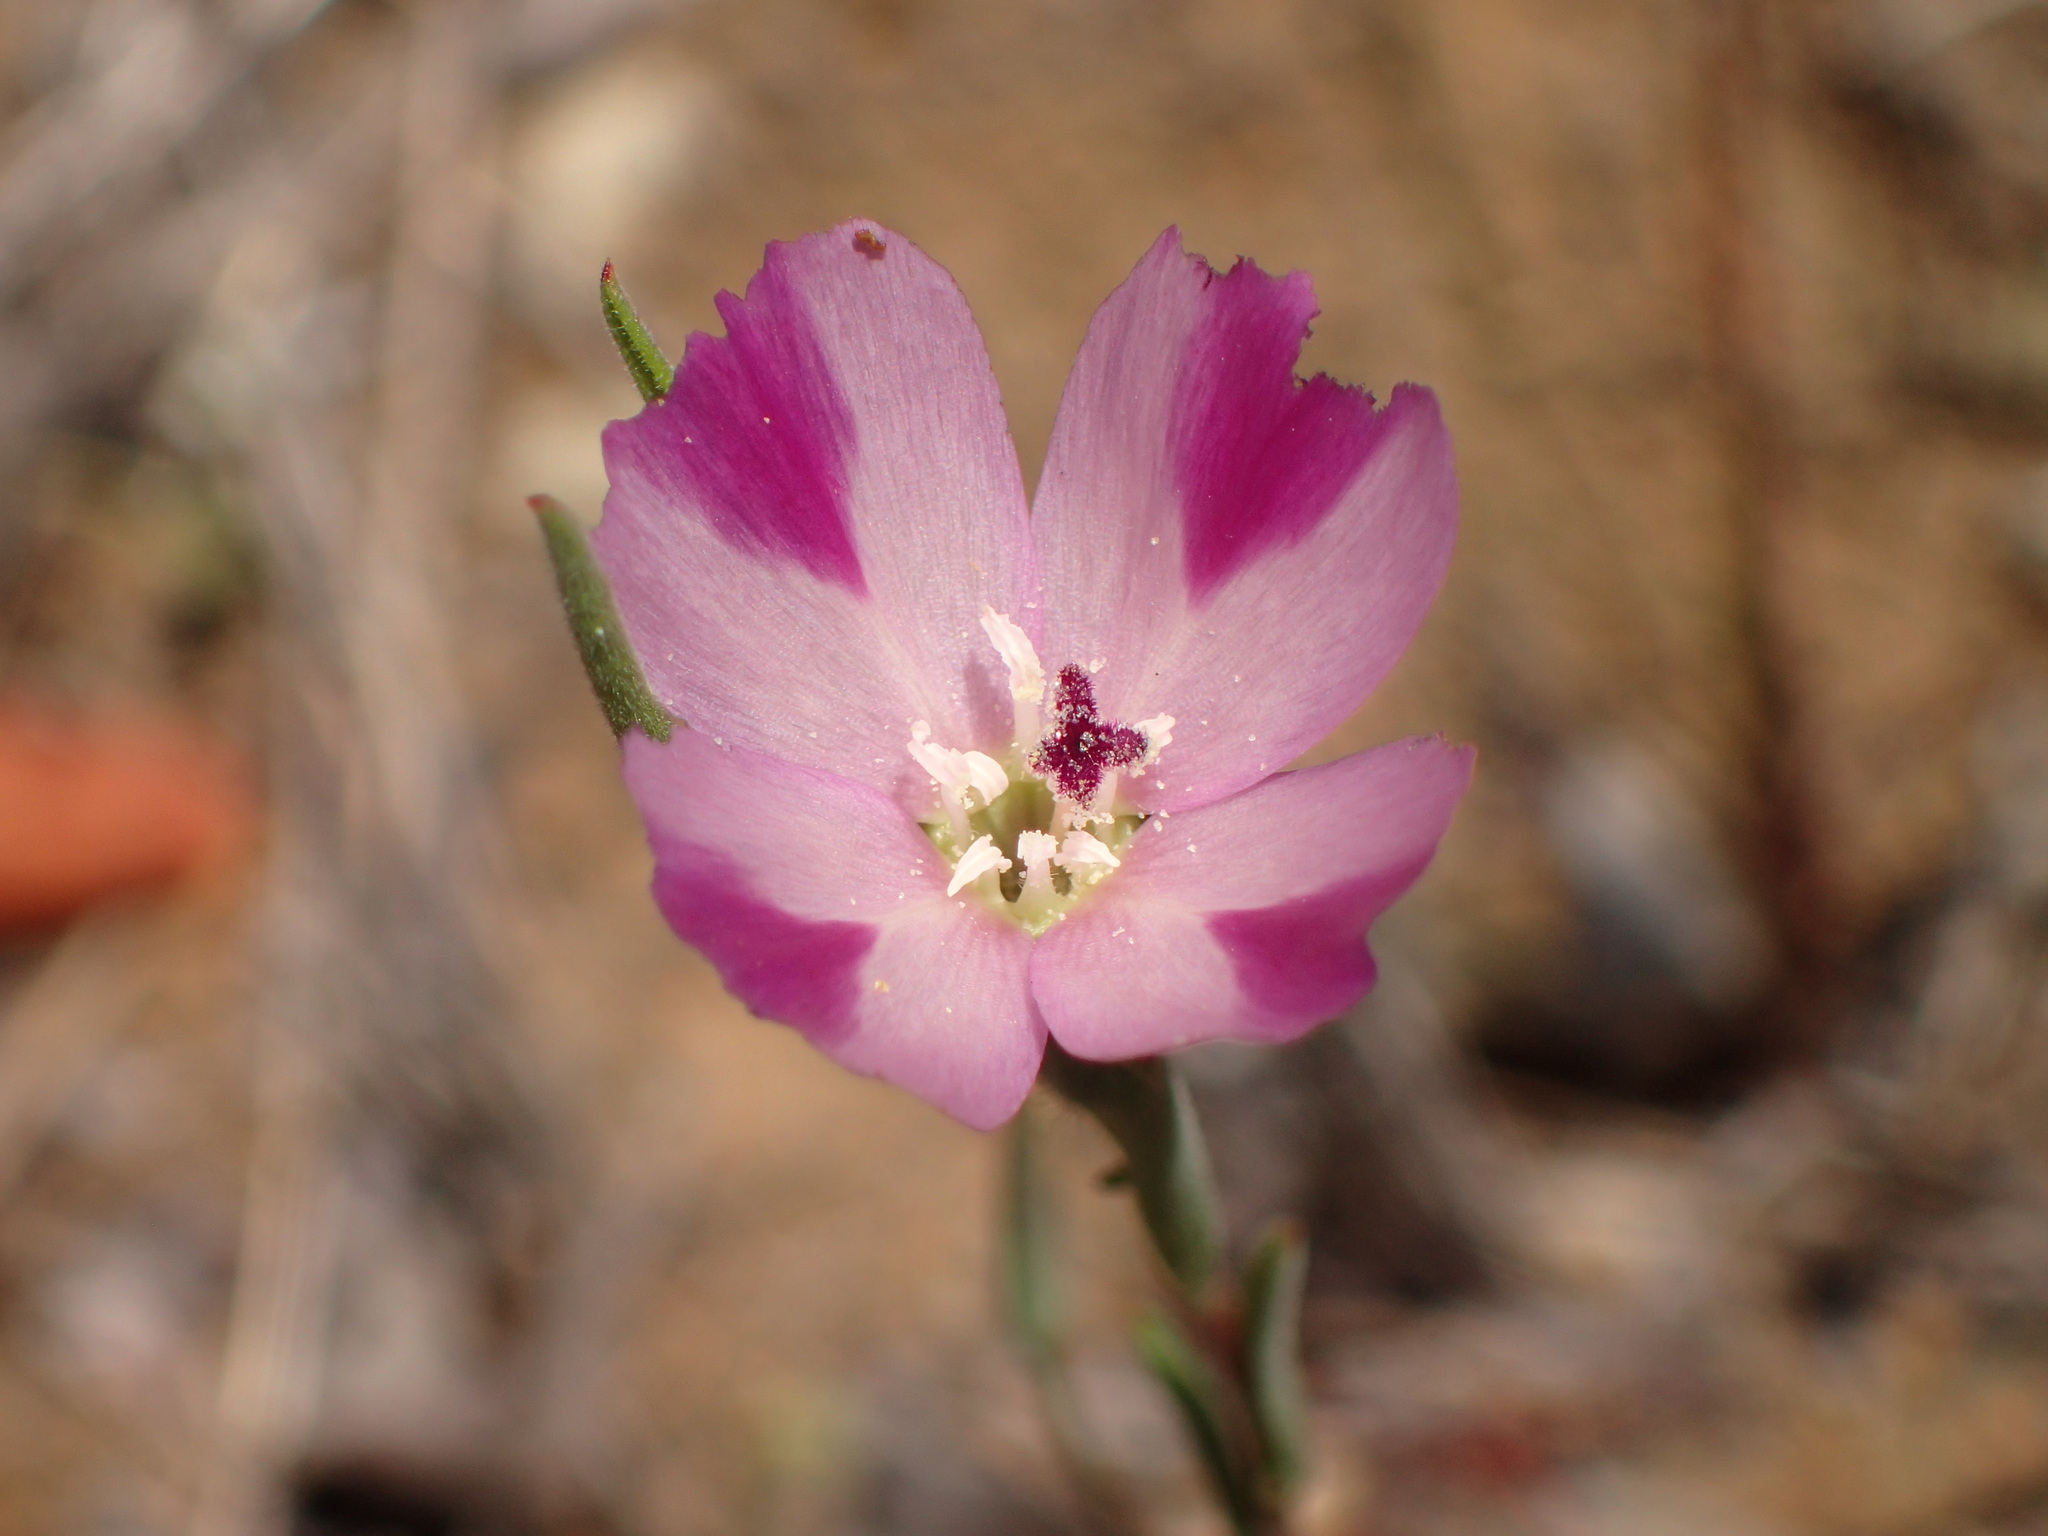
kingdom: Plantae
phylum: Tracheophyta
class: Magnoliopsida
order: Myrtales
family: Onagraceae
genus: Clarkia
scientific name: Clarkia purpurea
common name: Purple clarkia
